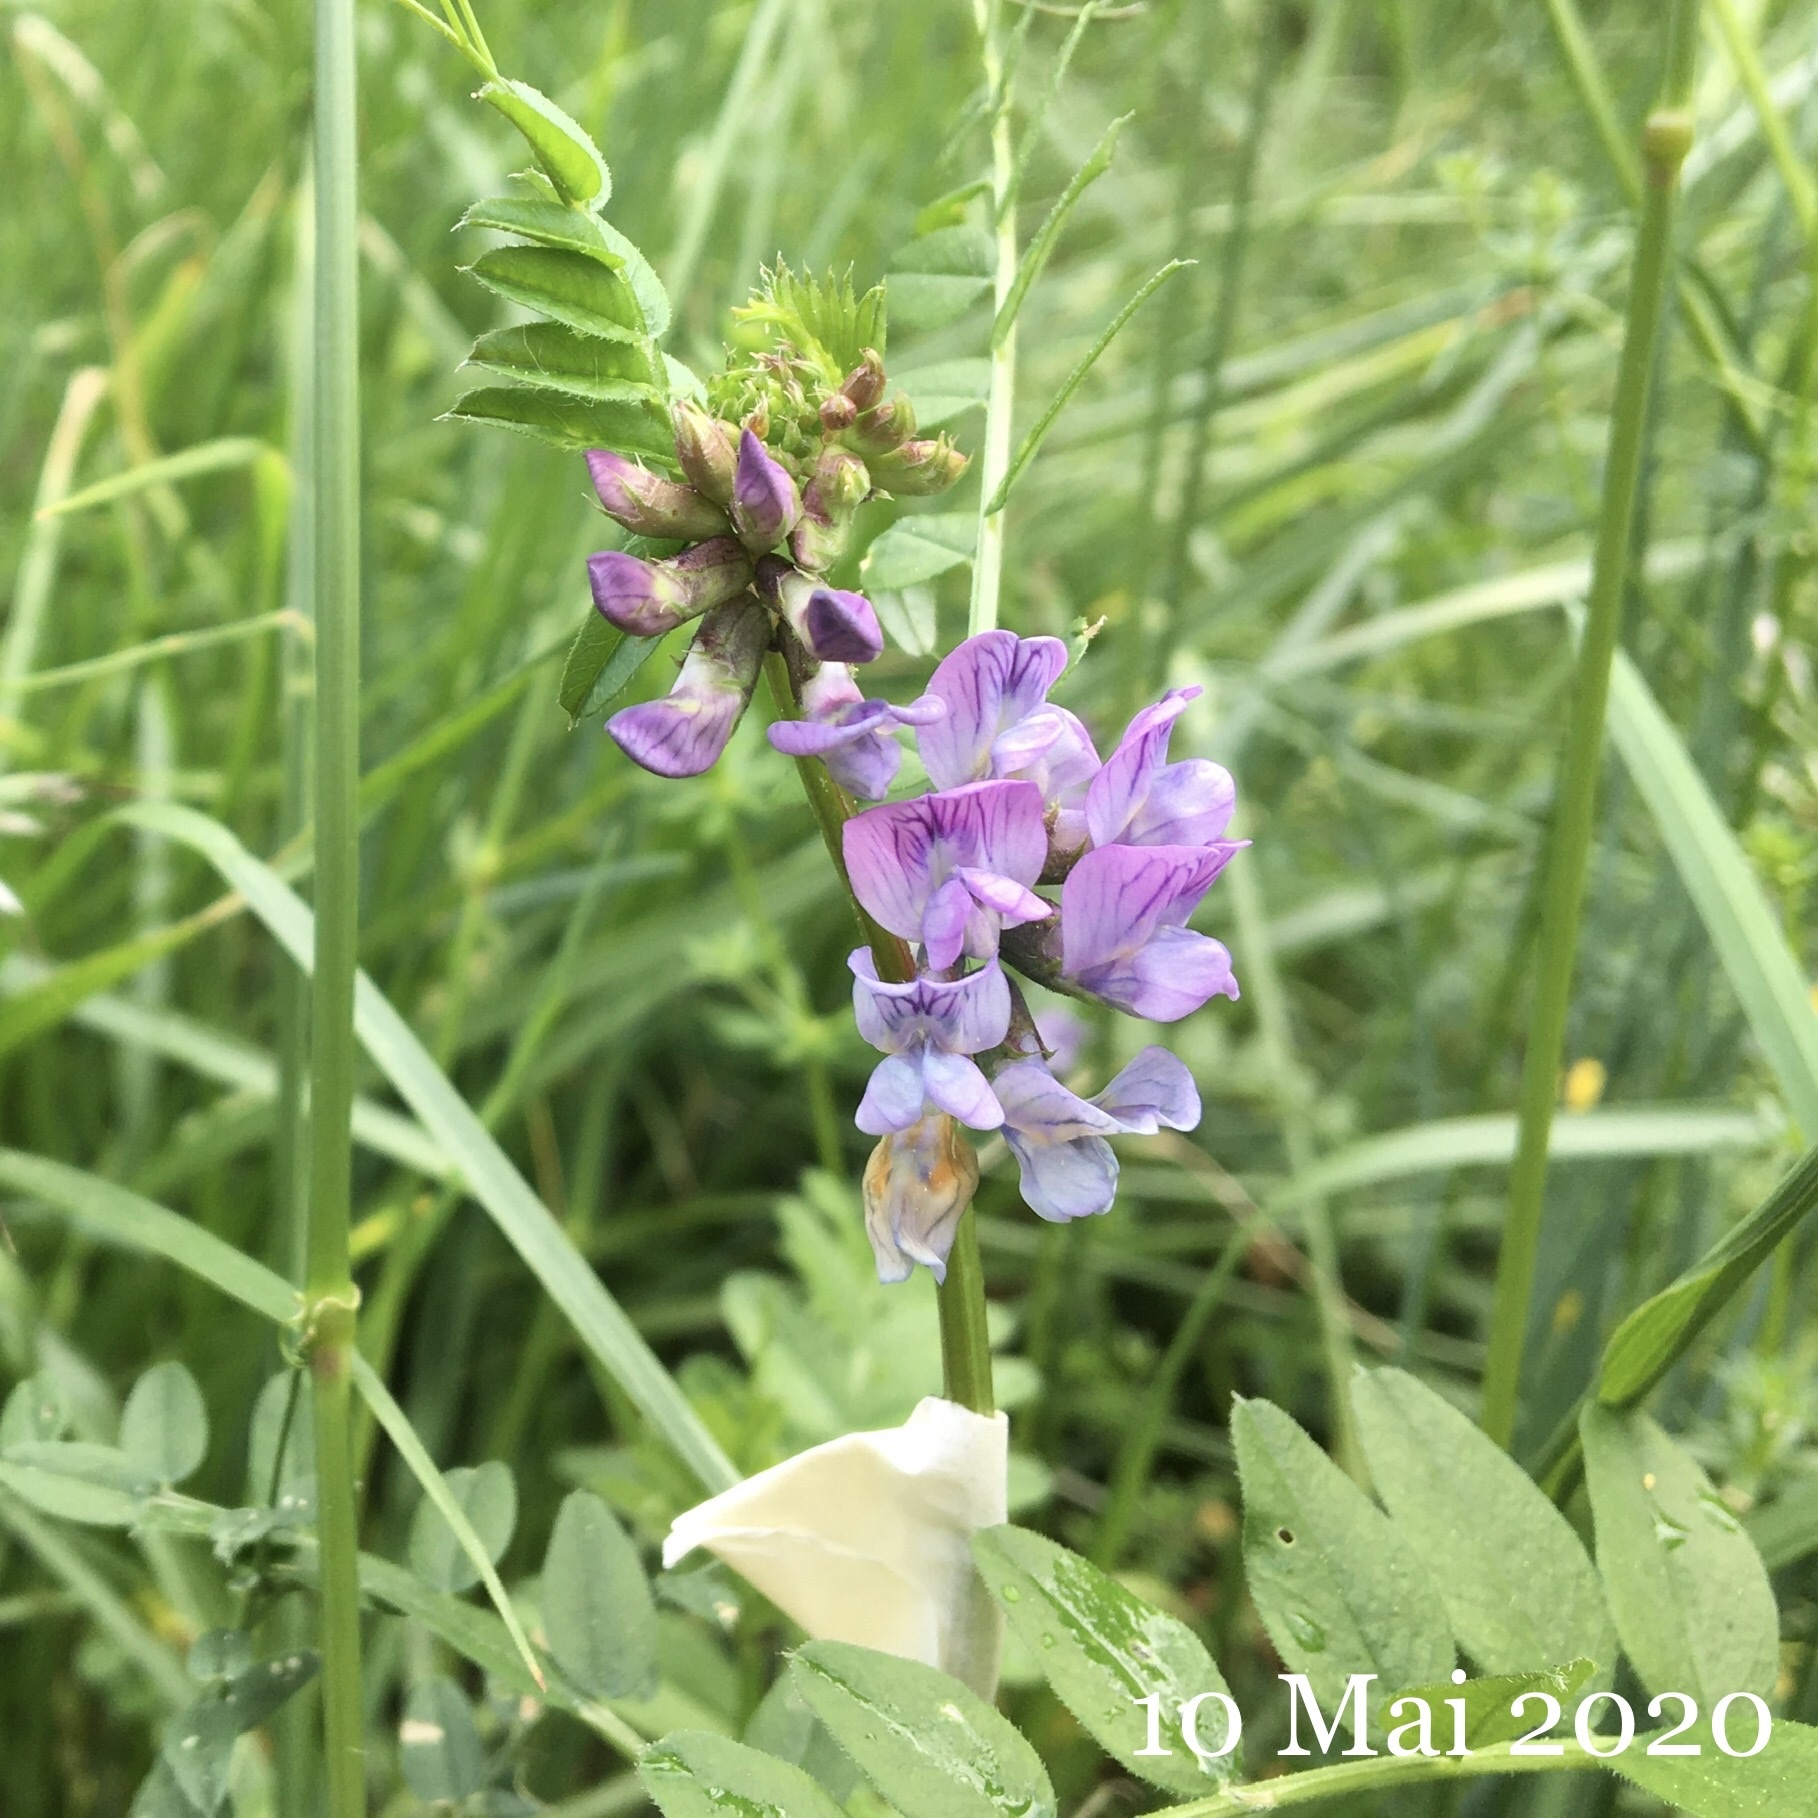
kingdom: Plantae
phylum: Tracheophyta
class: Magnoliopsida
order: Fabales
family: Fabaceae
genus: Vicia
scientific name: Vicia sepium
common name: Bush vetch
